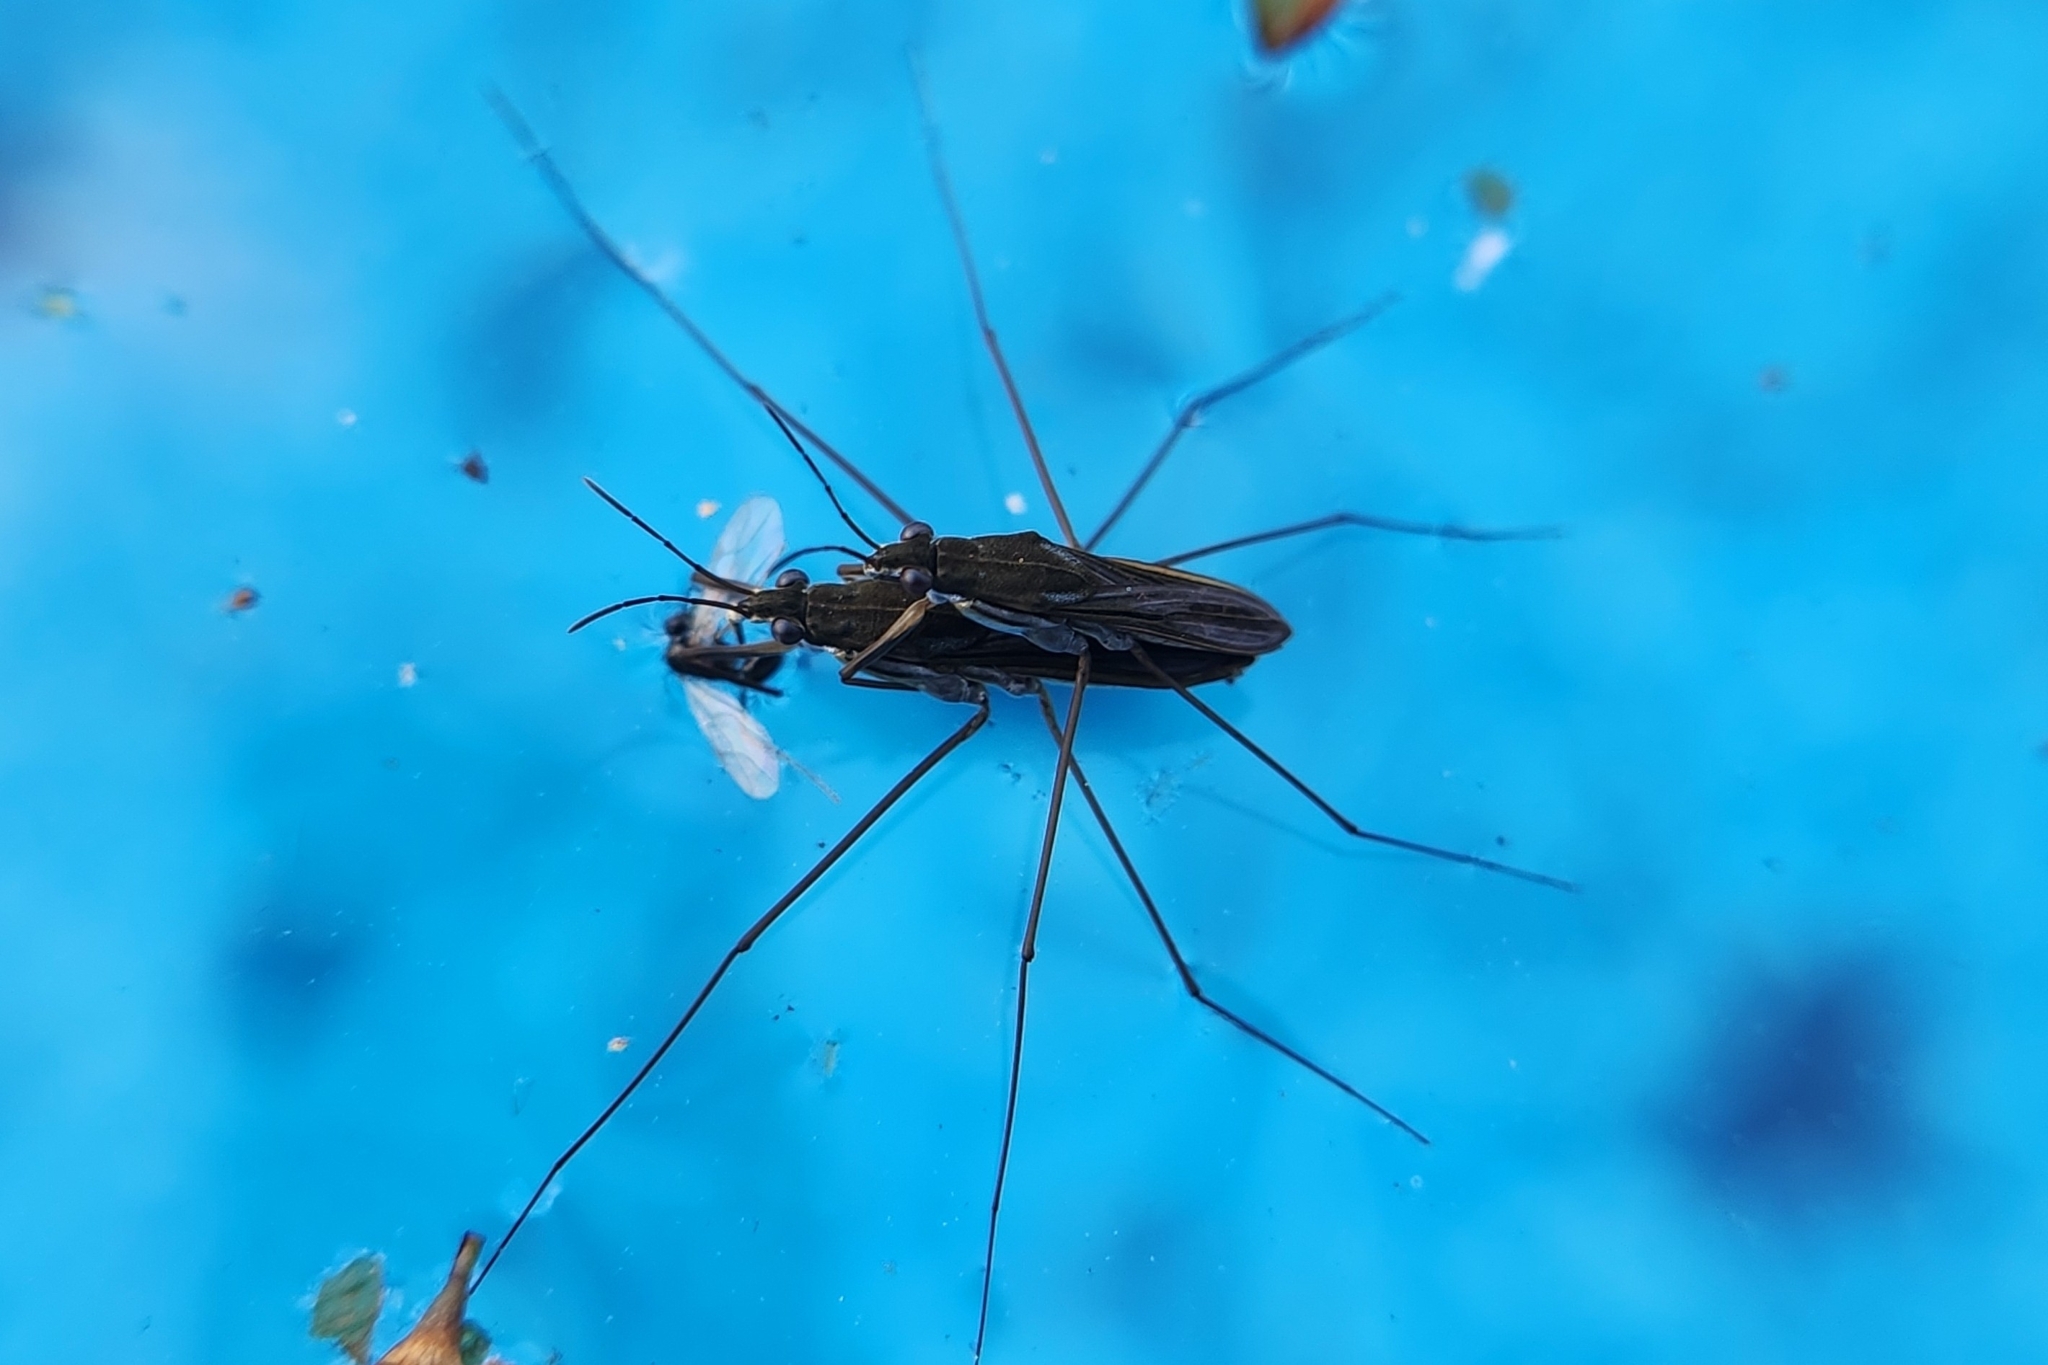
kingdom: Animalia
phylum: Arthropoda
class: Insecta
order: Hemiptera
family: Gerridae
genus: Gerris
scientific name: Gerris
